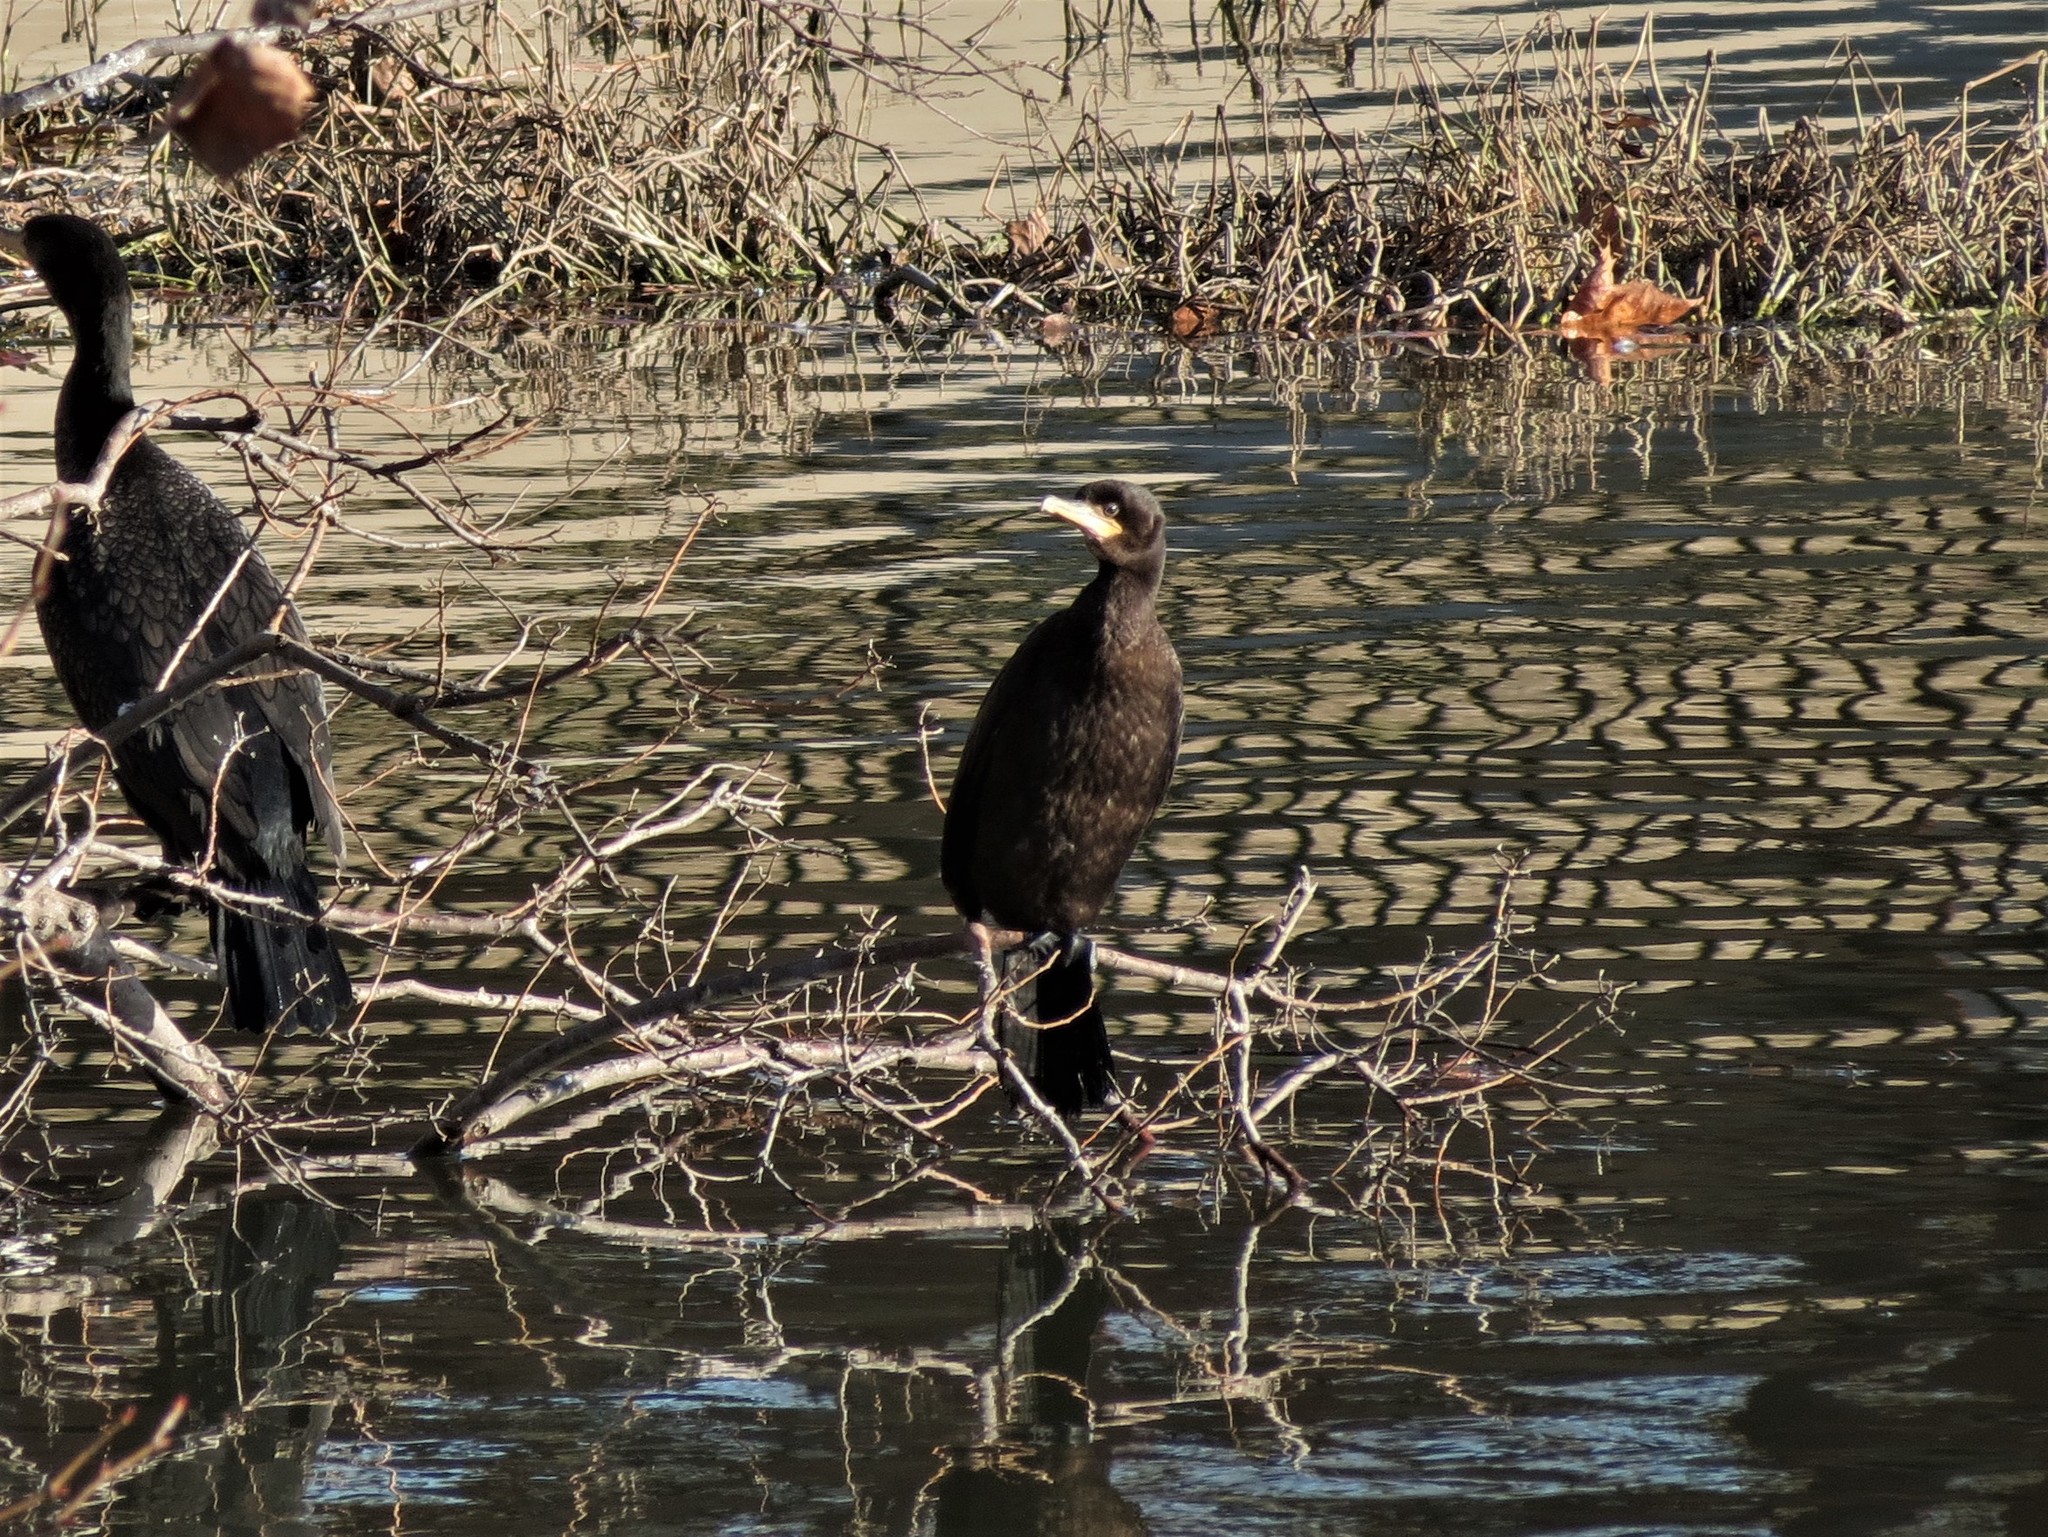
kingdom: Animalia
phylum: Chordata
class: Aves
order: Suliformes
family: Phalacrocoracidae
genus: Phalacrocorax
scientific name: Phalacrocorax brasilianus
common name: Neotropic cormorant
